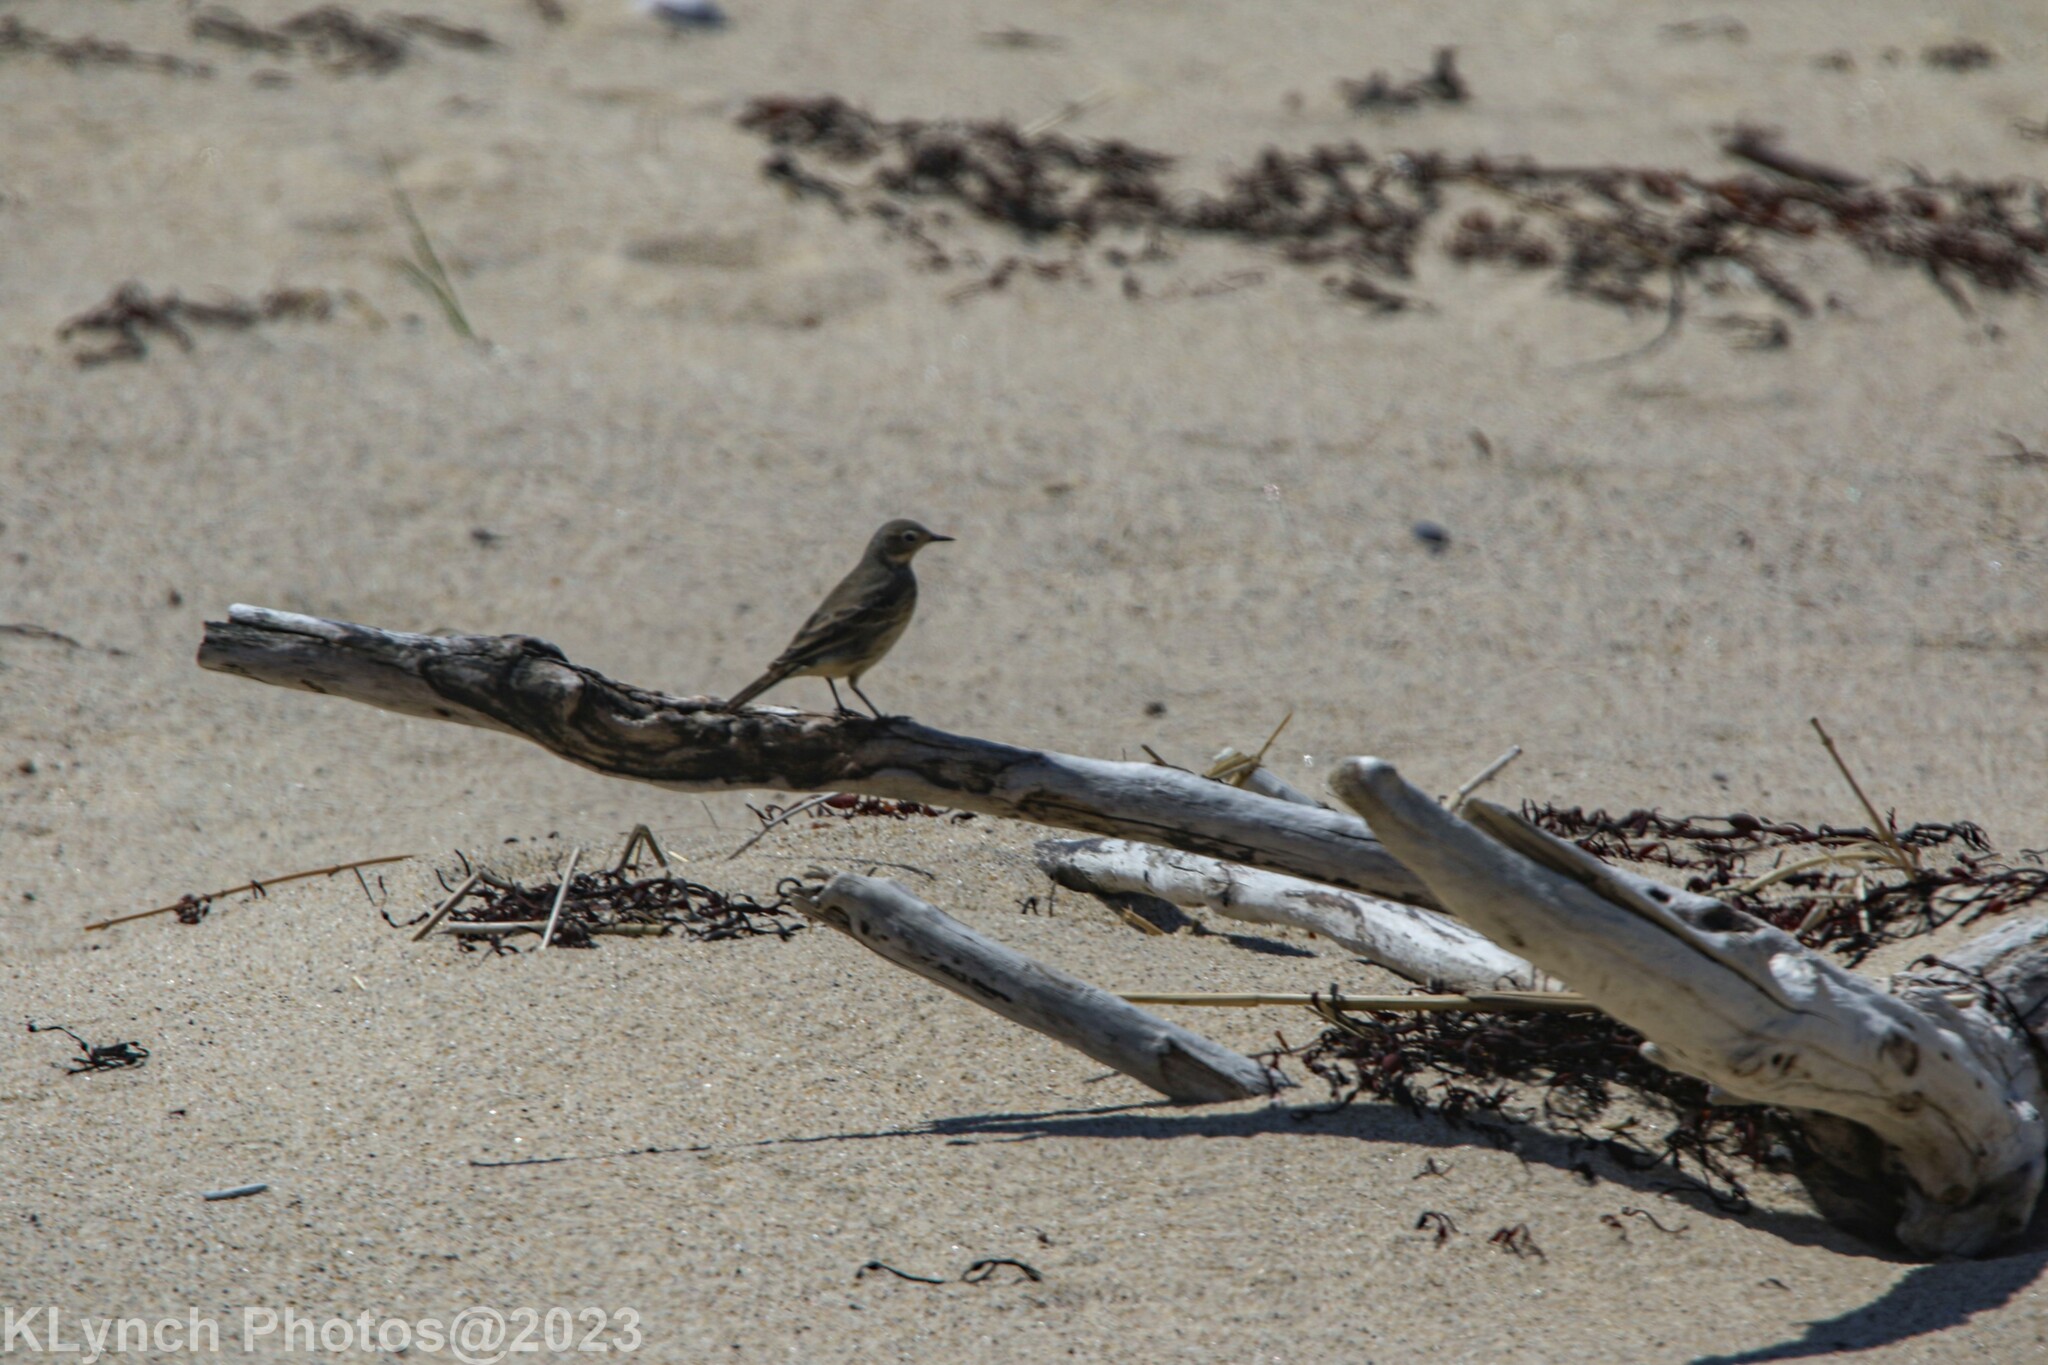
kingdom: Animalia
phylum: Chordata
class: Aves
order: Passeriformes
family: Motacillidae
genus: Anthus
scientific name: Anthus rubescens
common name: Buff-bellied pipit
